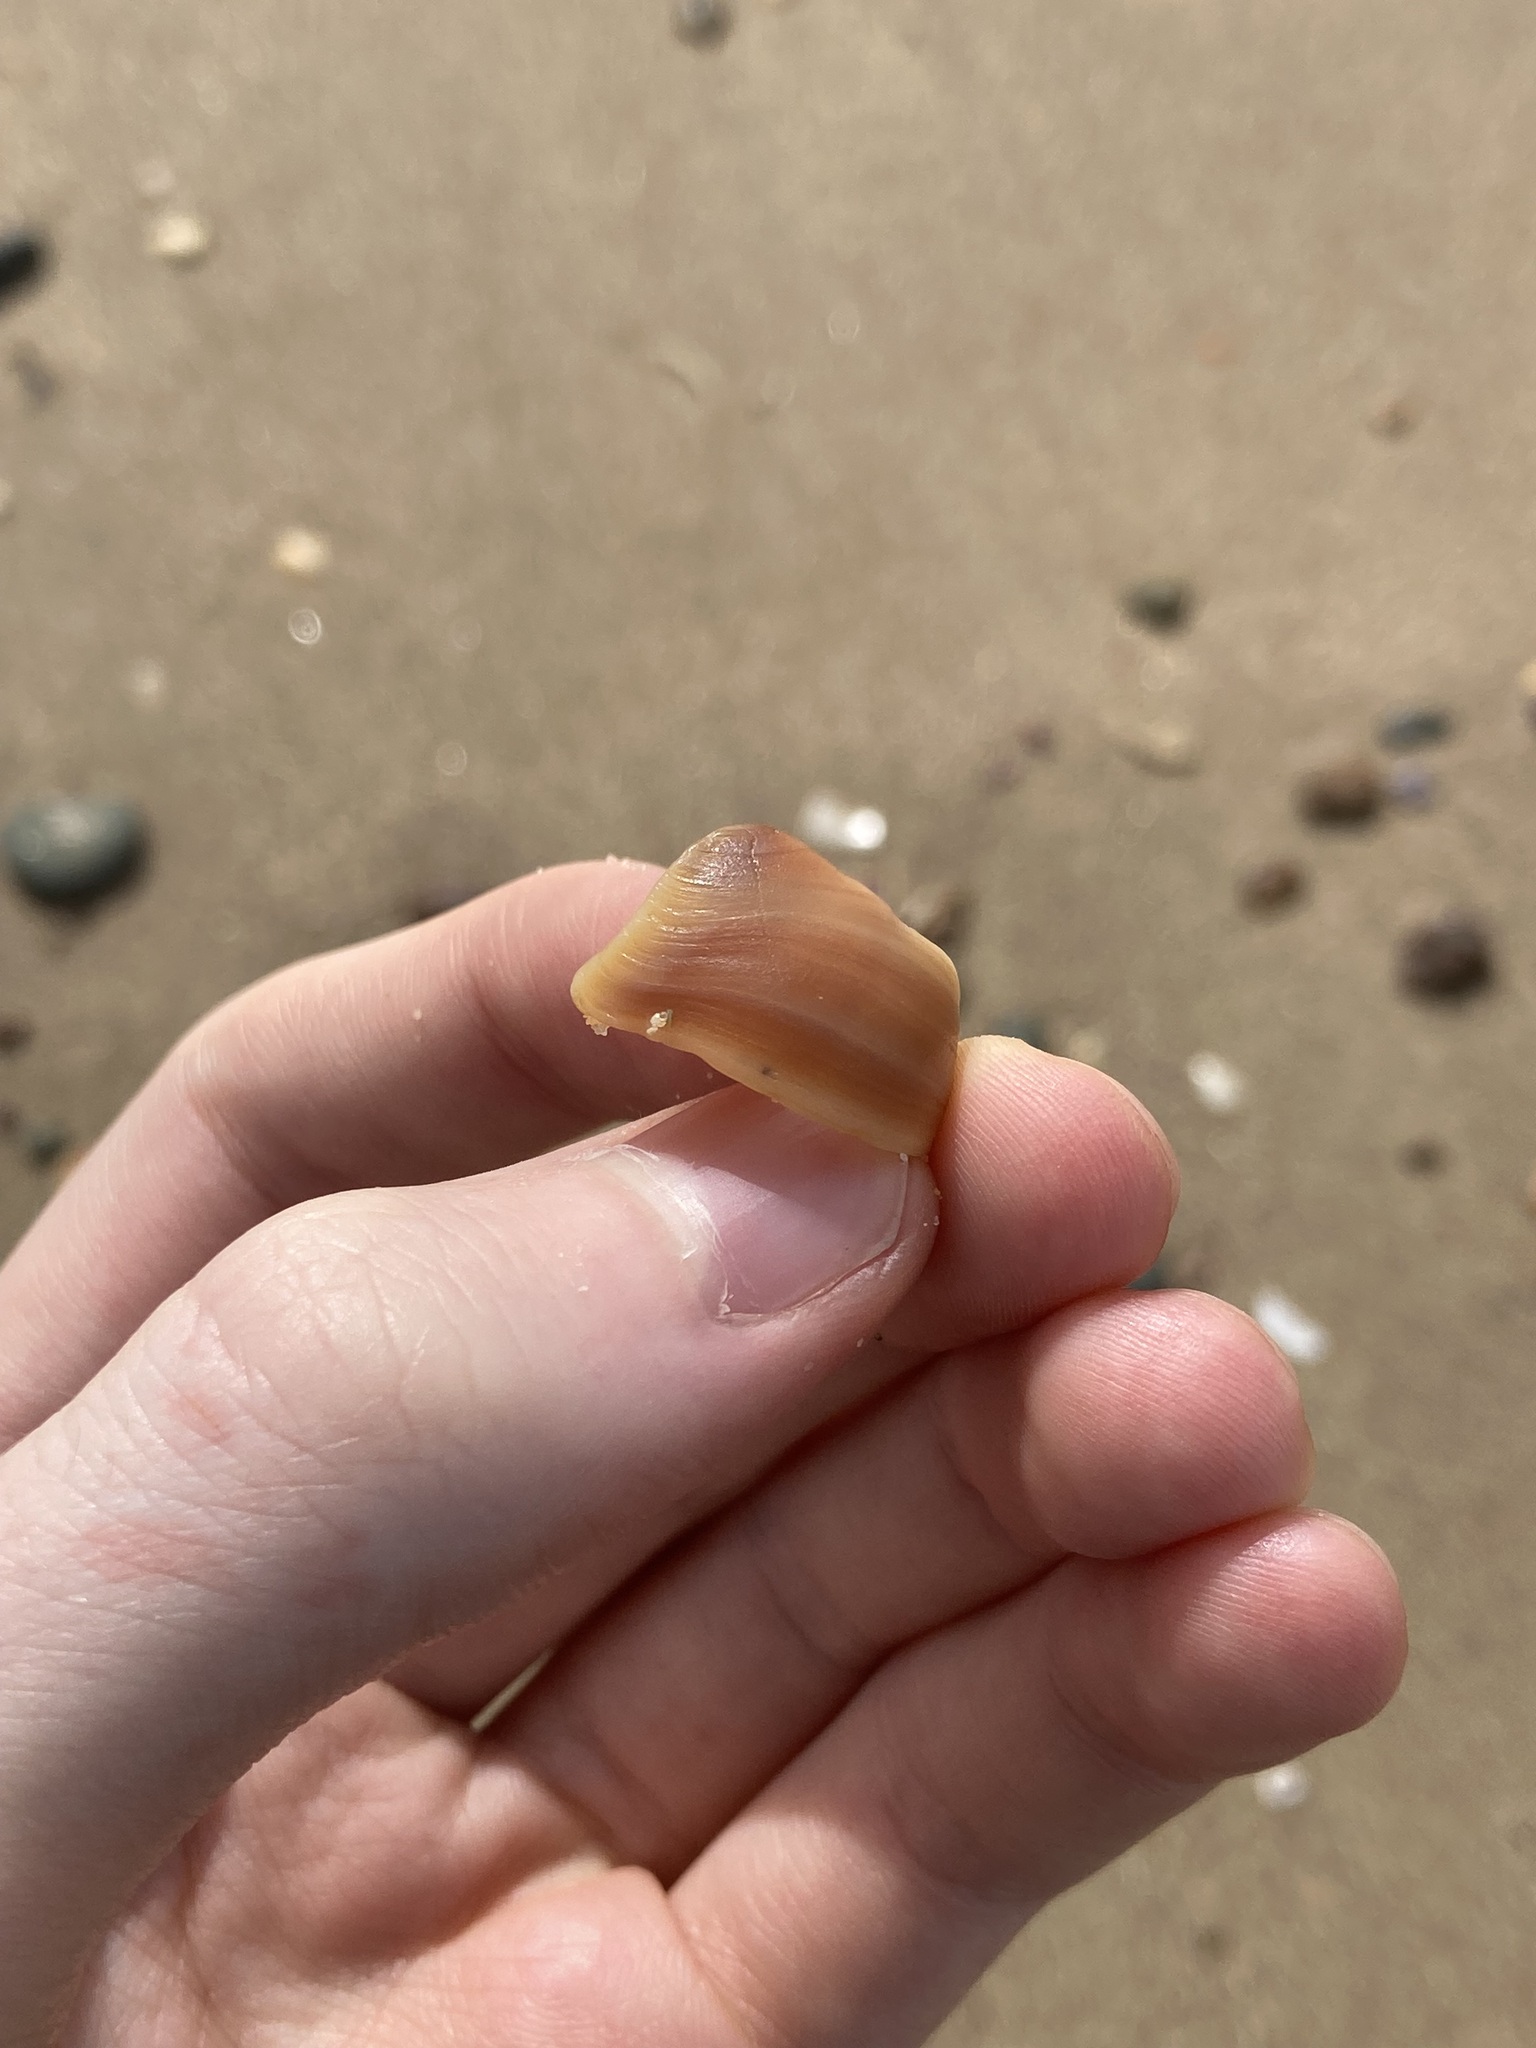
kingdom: Animalia
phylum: Mollusca
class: Gastropoda
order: Littorinimorpha
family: Naticidae
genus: Conuber
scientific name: Conuber sordidum
